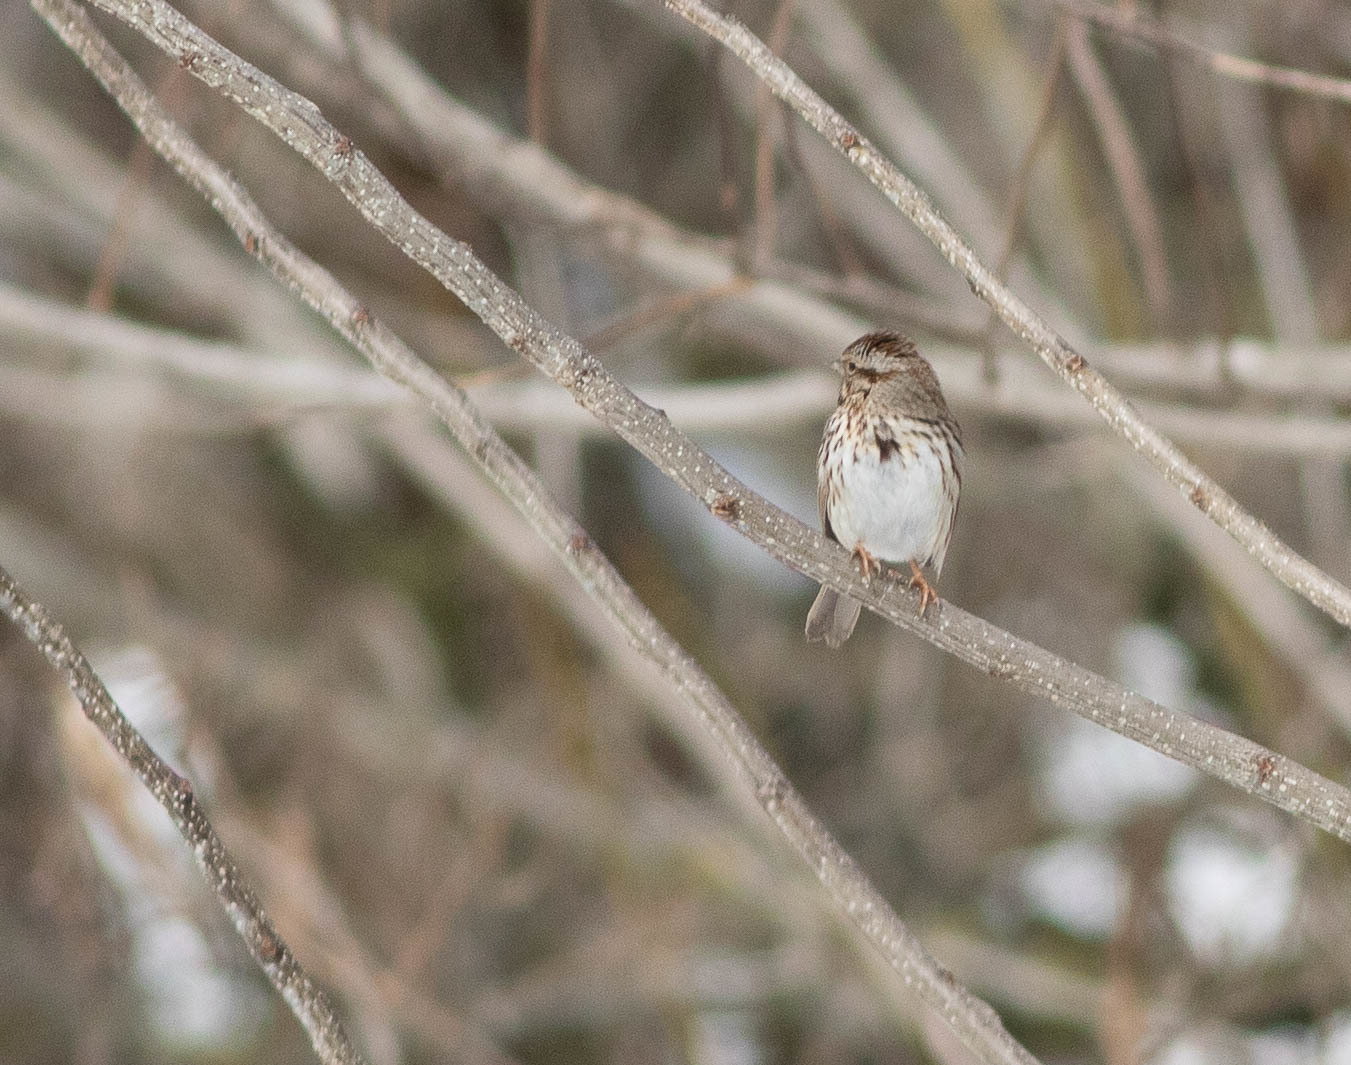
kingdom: Animalia
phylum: Chordata
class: Aves
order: Passeriformes
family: Passerellidae
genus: Melospiza
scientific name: Melospiza melodia
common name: Song sparrow
